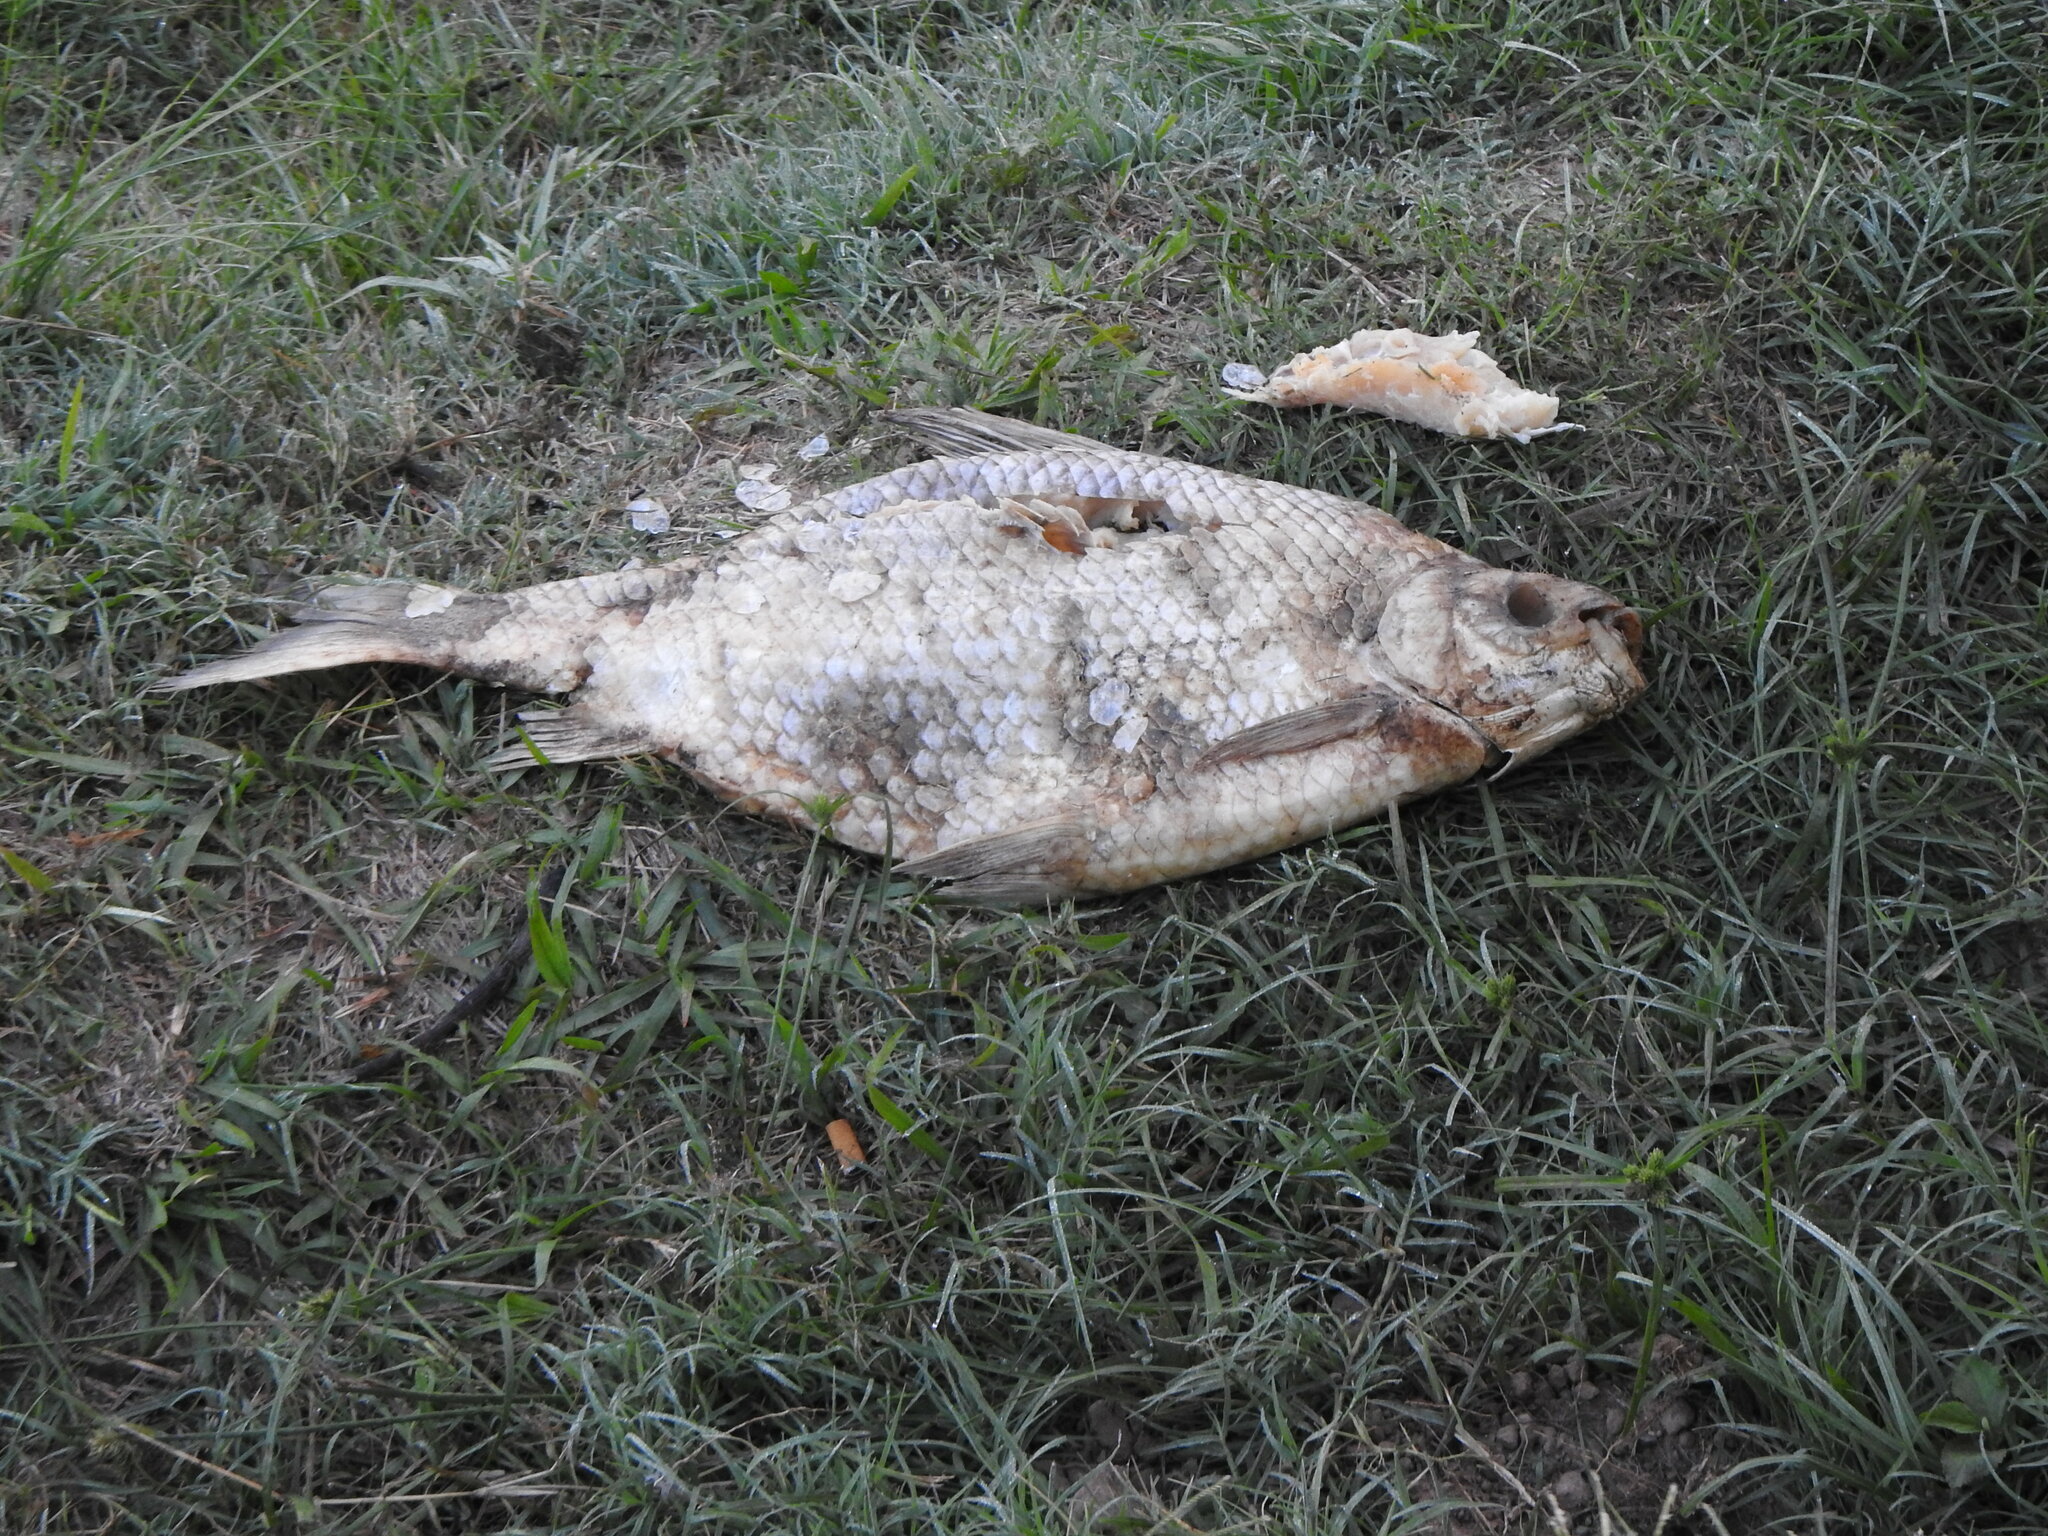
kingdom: Animalia
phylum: Chordata
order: Characiformes
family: Prochilodontidae
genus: Prochilodus
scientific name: Prochilodus lineatus
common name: Curimbata
